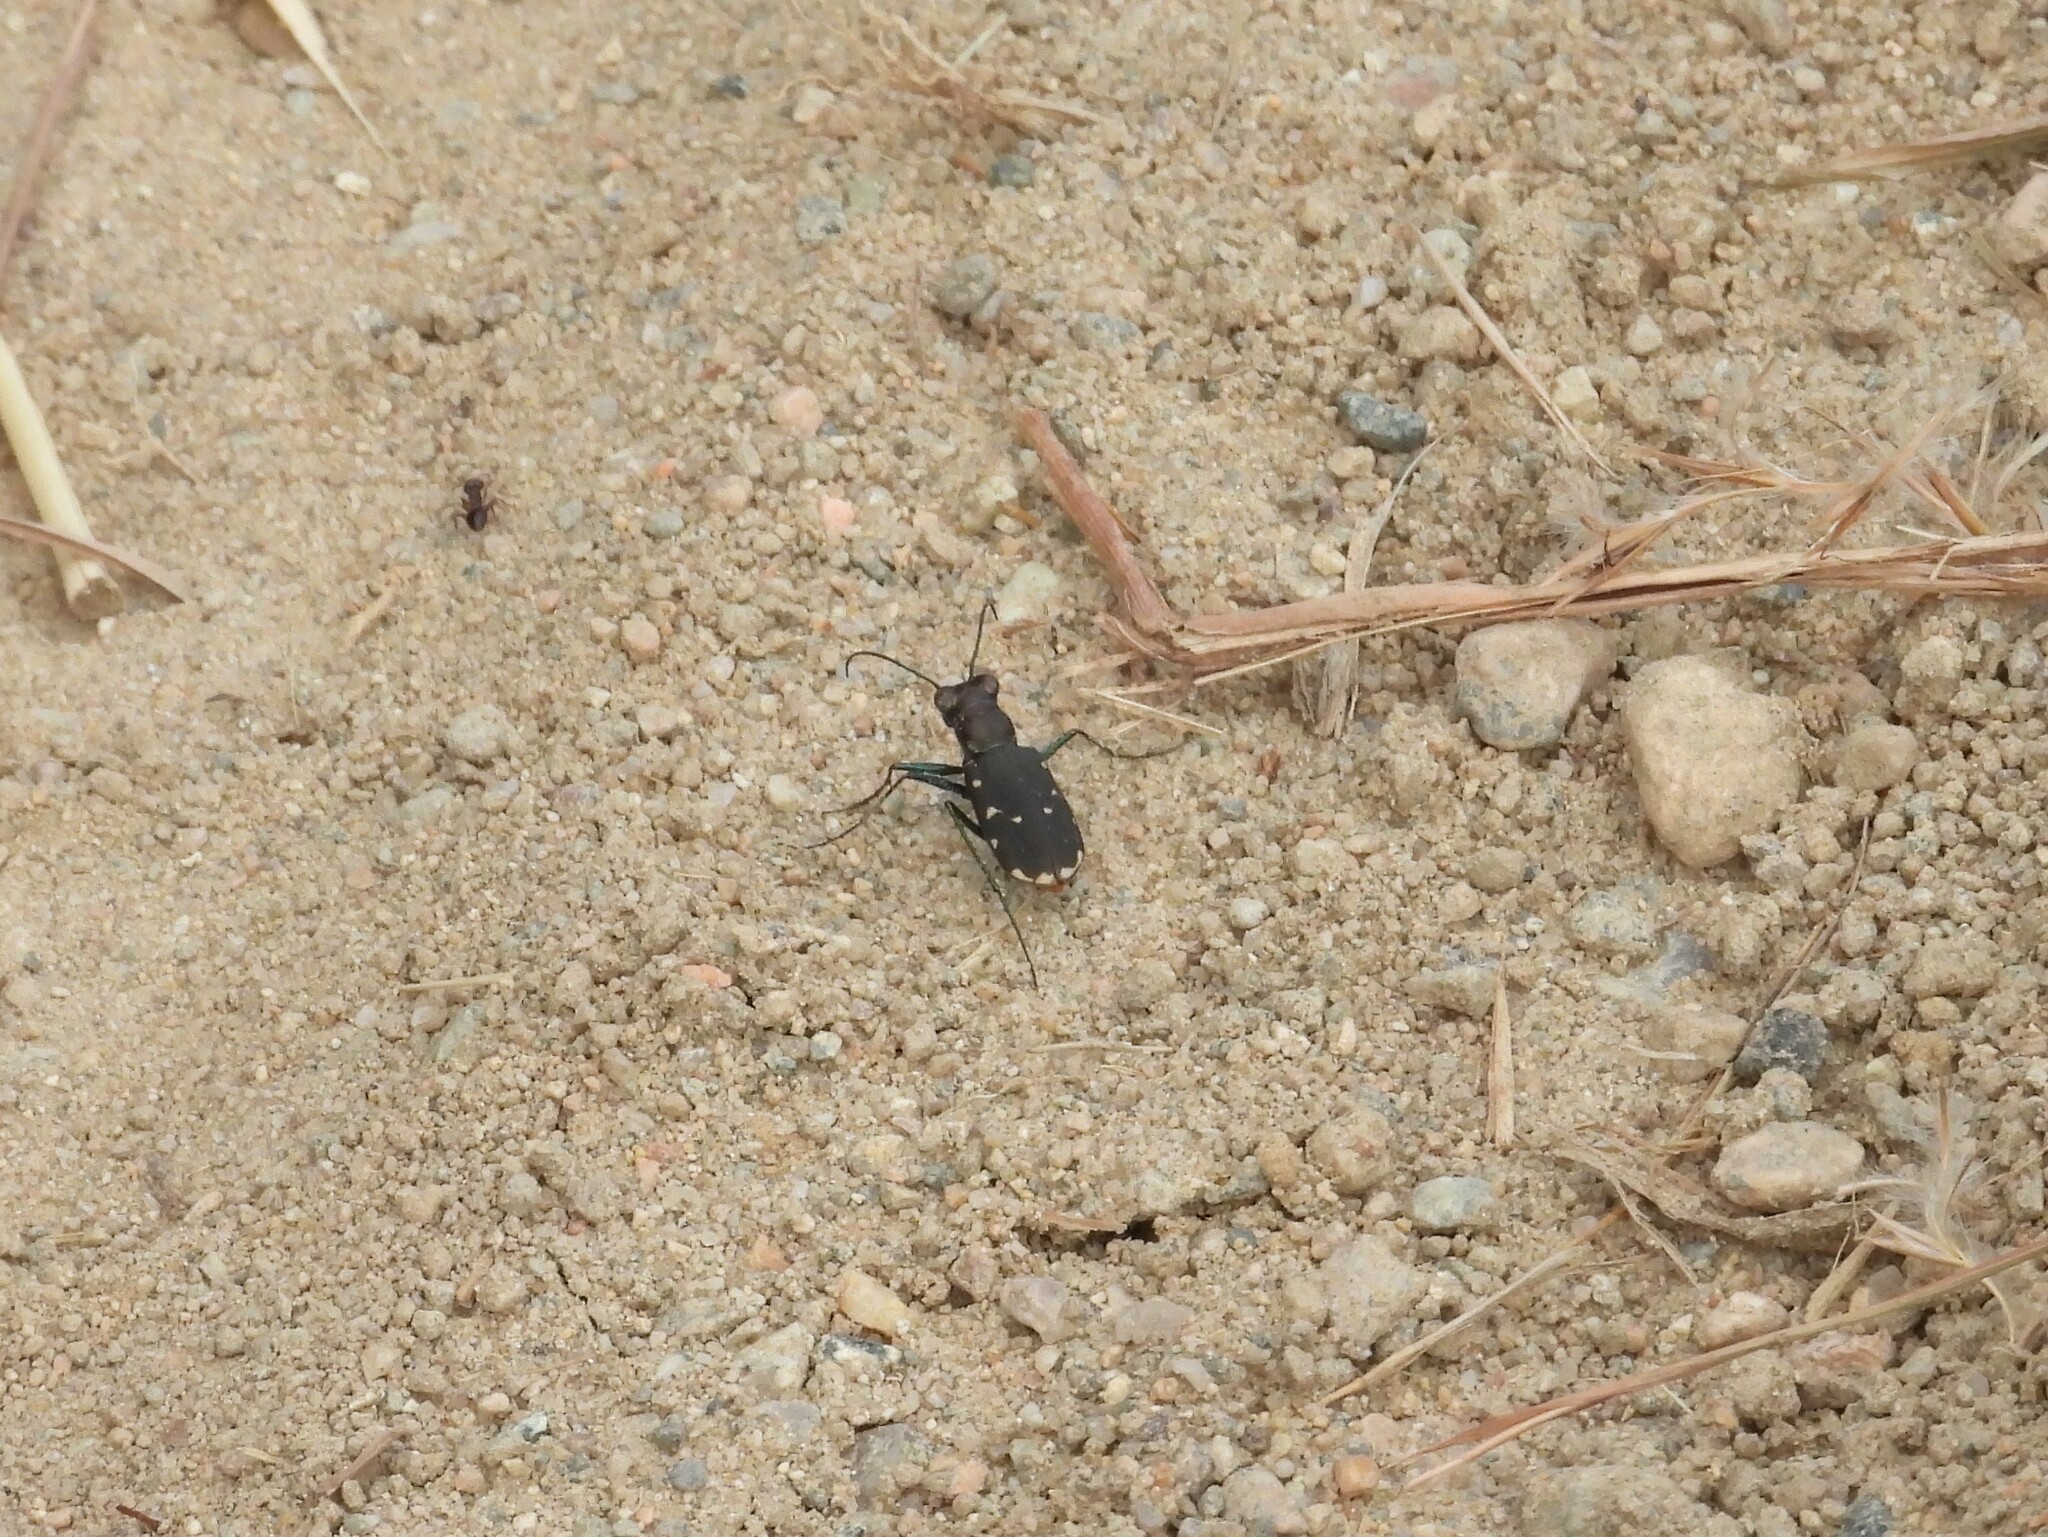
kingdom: Animalia
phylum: Arthropoda
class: Insecta
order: Coleoptera
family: Carabidae
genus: Cicindela
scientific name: Cicindela rufiventris
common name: Eastern red-bellied tiger beetle
